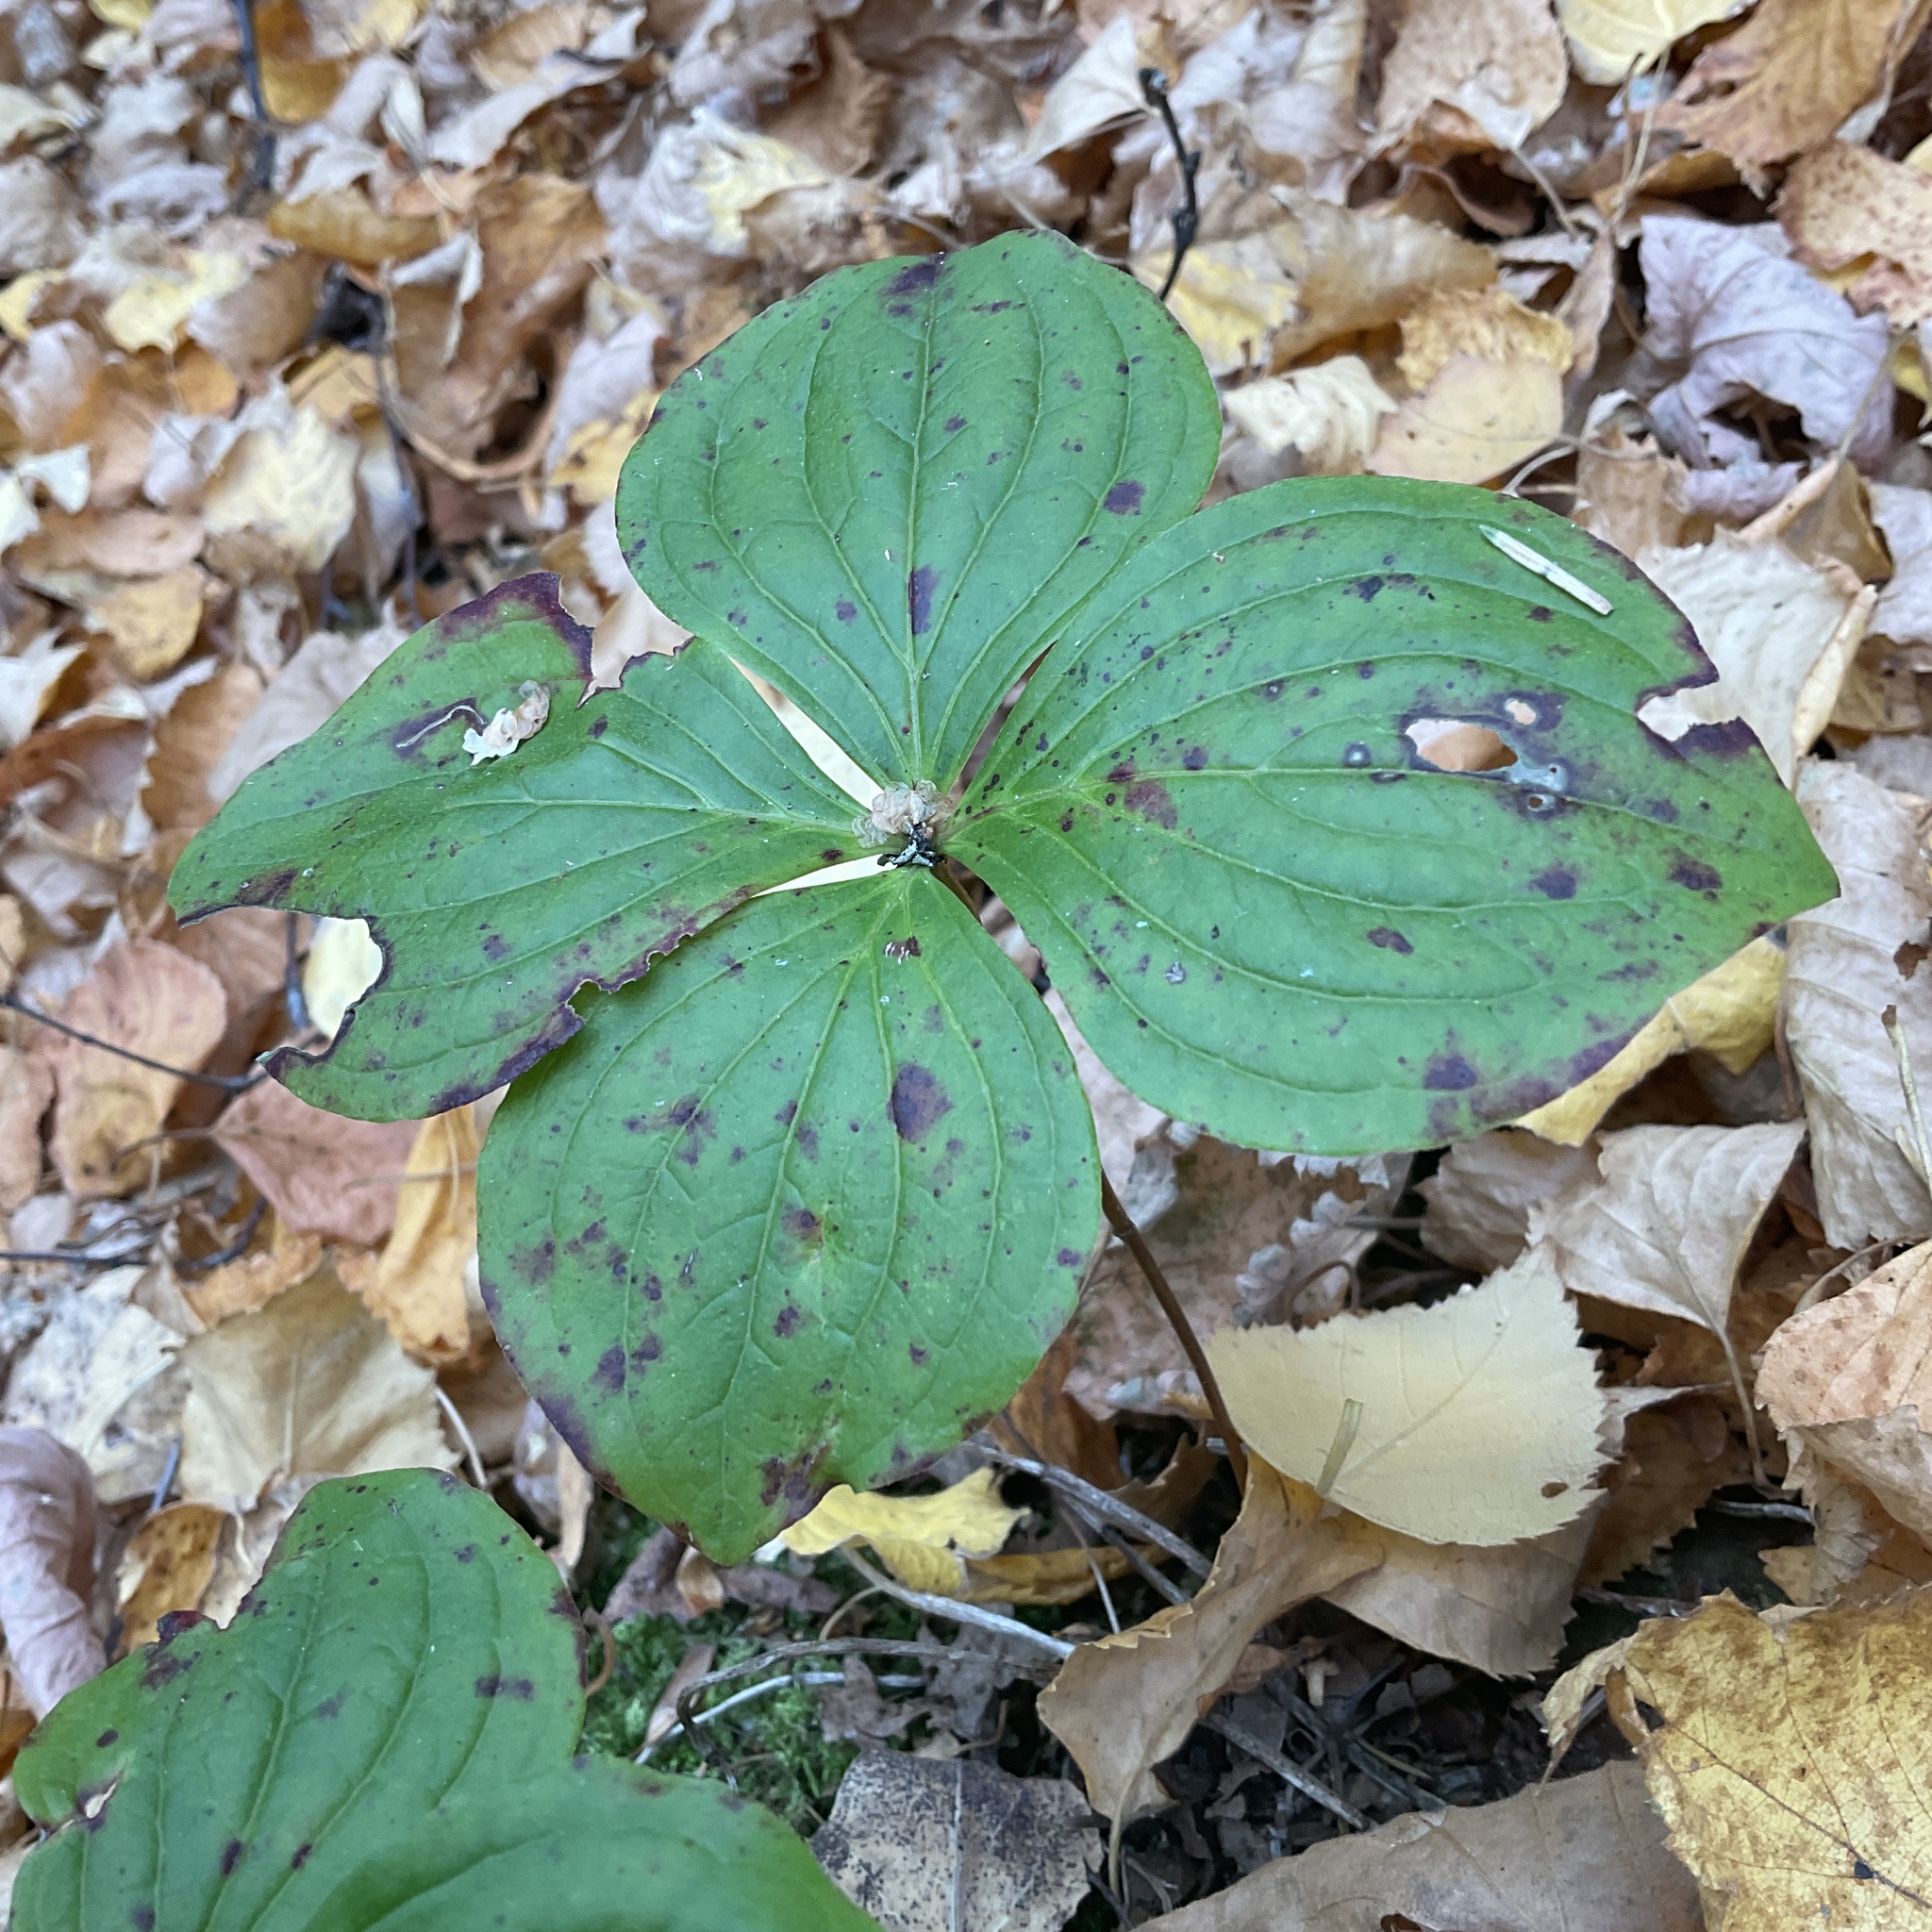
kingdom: Plantae
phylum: Tracheophyta
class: Magnoliopsida
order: Cornales
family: Cornaceae
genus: Cornus
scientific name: Cornus canadensis
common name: Creeping dogwood
